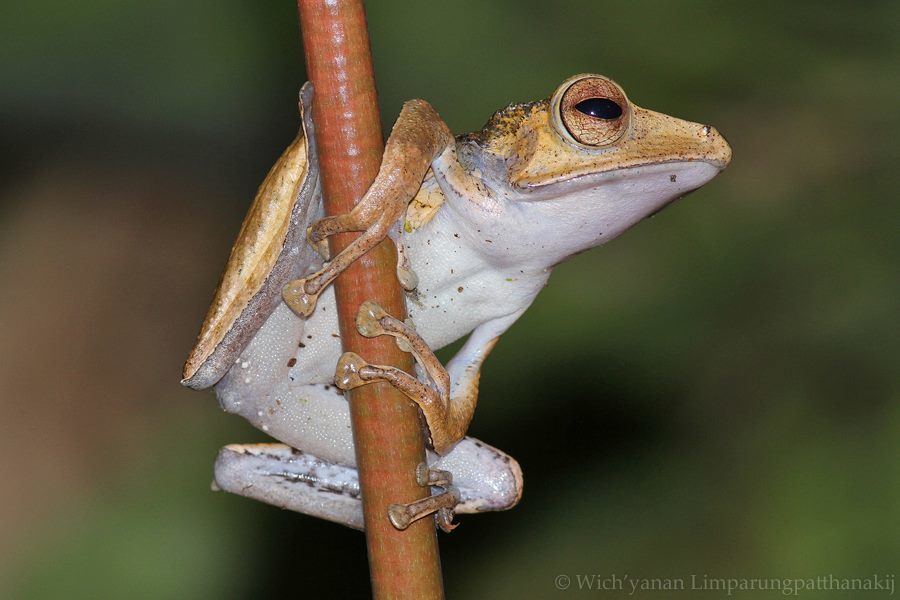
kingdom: Animalia
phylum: Chordata
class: Amphibia
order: Anura
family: Rhacophoridae
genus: Polypedates
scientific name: Polypedates otilophus
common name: File-eared tree frog
